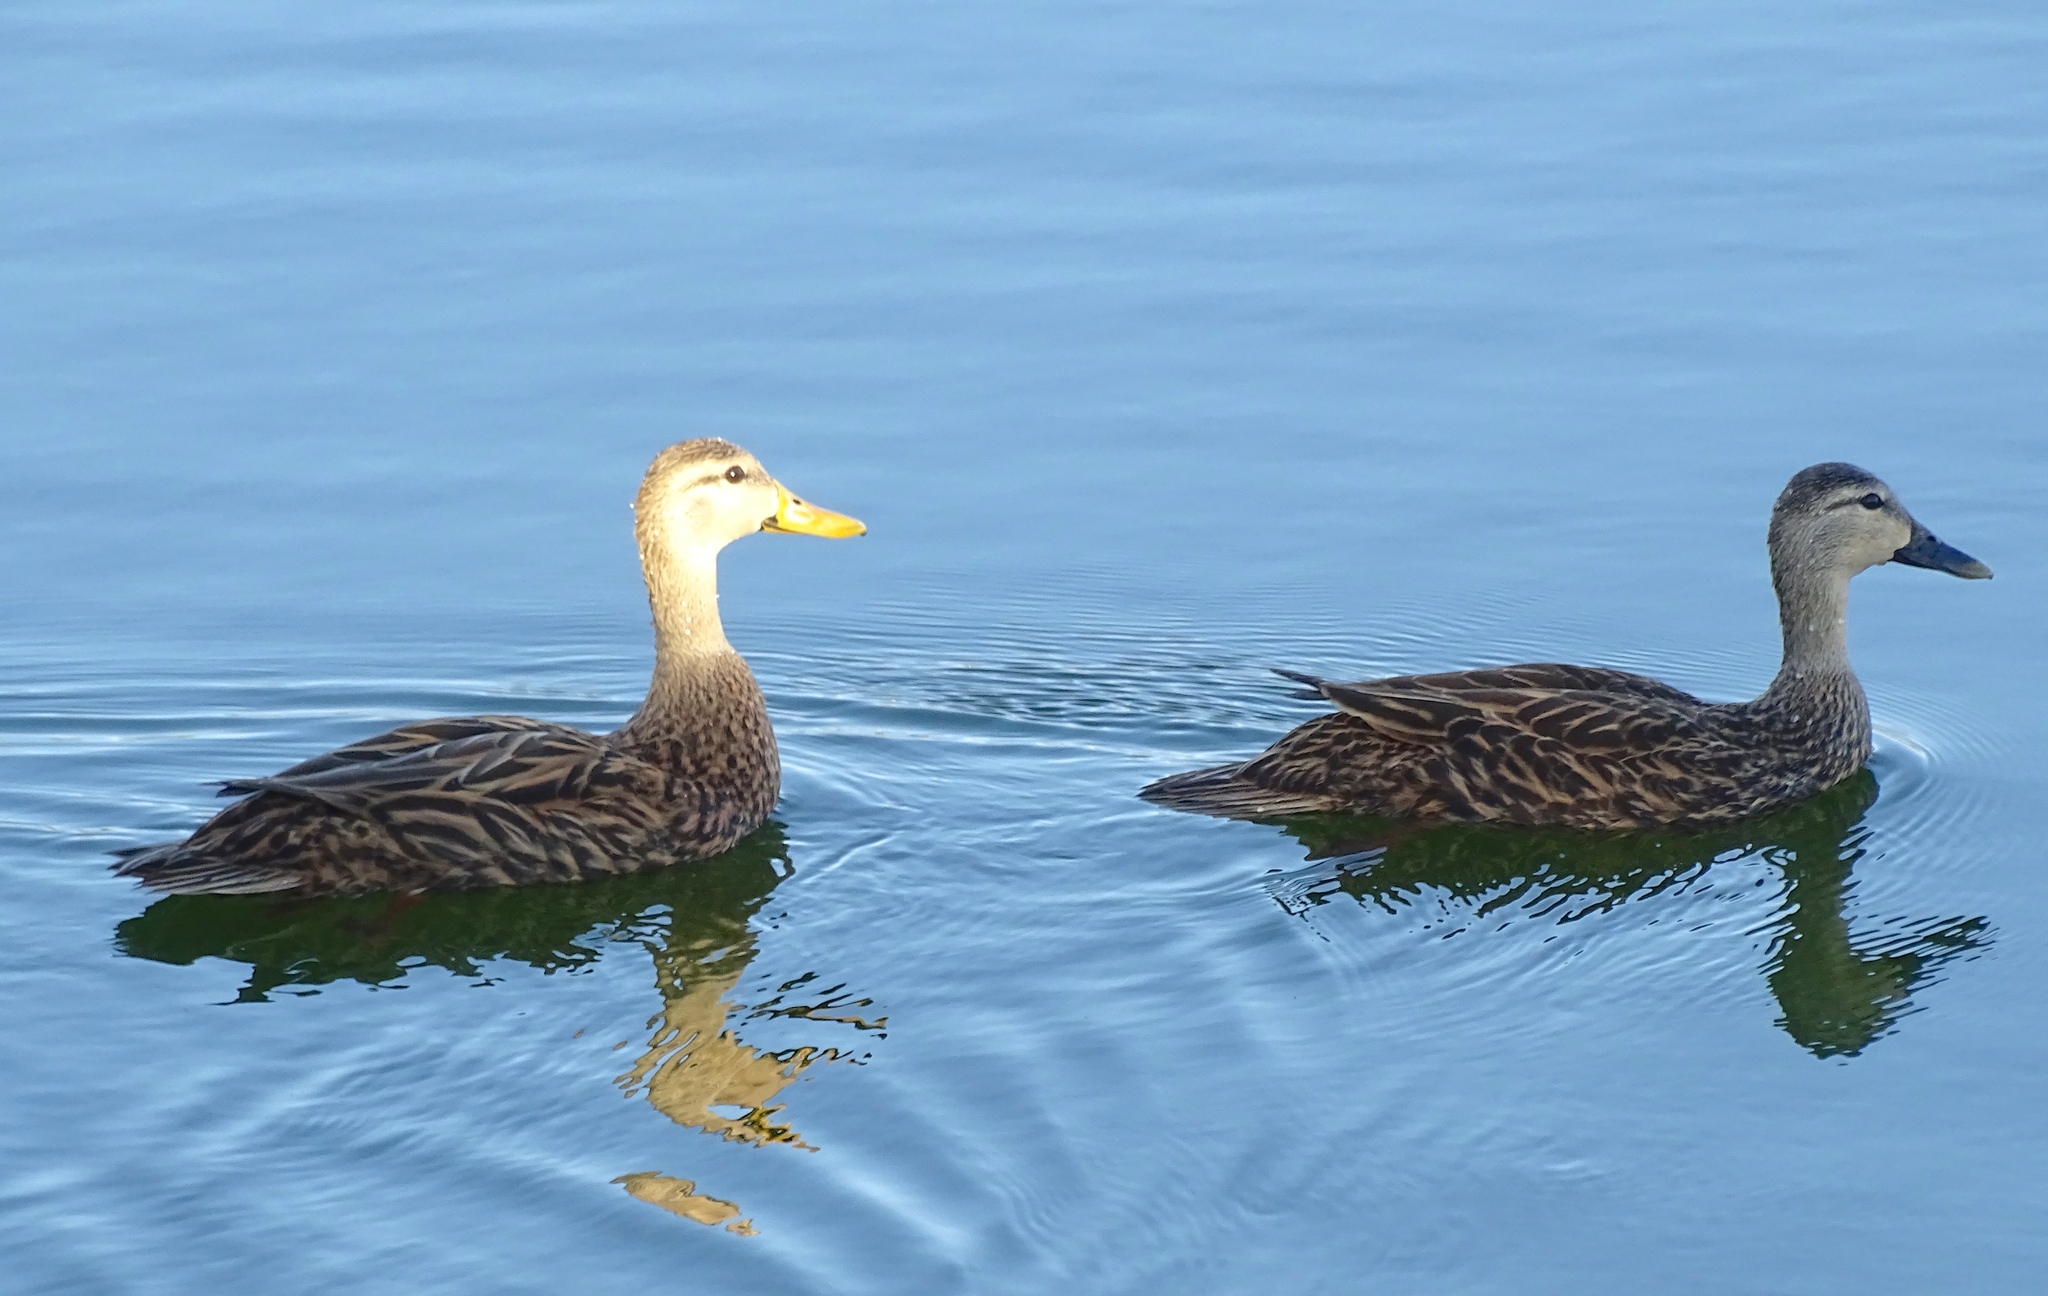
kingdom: Animalia
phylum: Chordata
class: Aves
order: Anseriformes
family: Anatidae
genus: Anas
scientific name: Anas fulvigula
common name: Mottled duck
